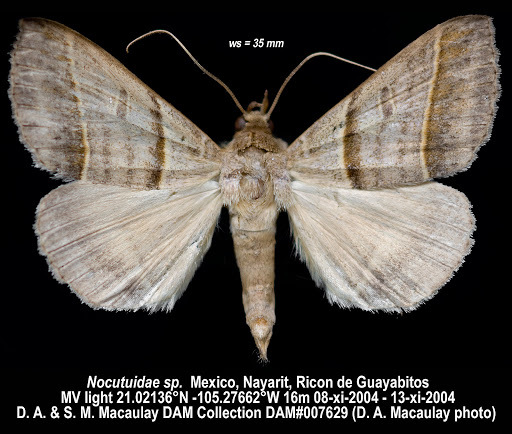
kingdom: Animalia
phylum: Arthropoda
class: Insecta
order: Lepidoptera
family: Erebidae
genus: Ptichodis
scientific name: Ptichodis vinculum
